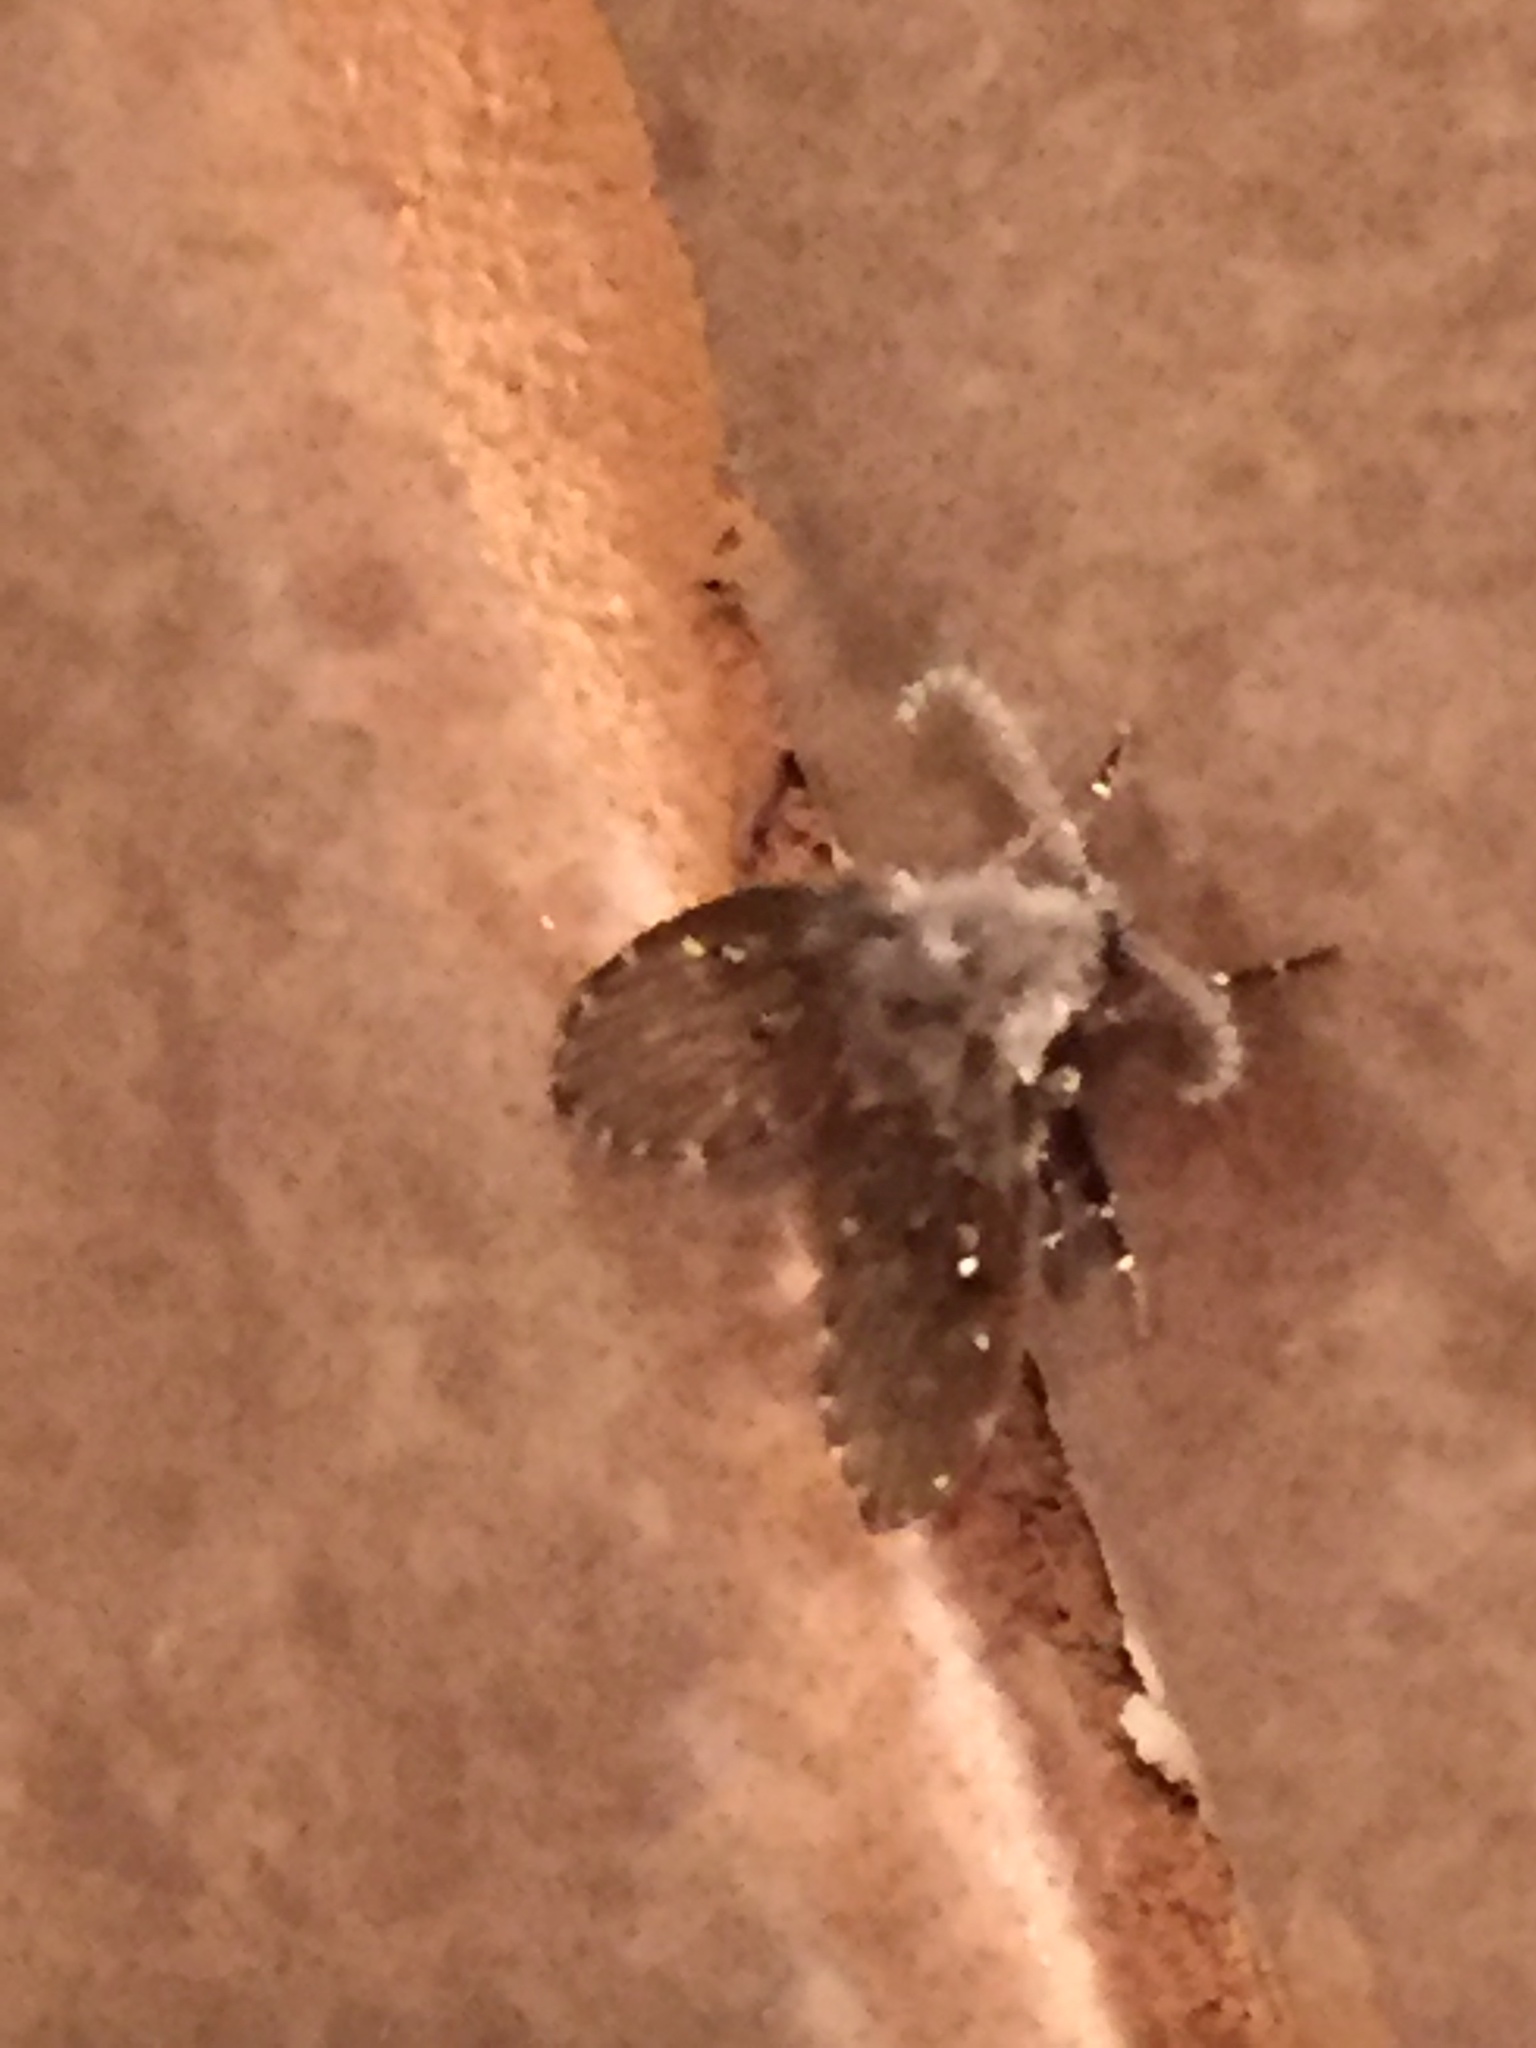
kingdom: Animalia
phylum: Arthropoda
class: Insecta
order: Diptera
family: Psychodidae
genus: Clogmia
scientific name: Clogmia albipunctatus
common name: White-spotted moth fly
